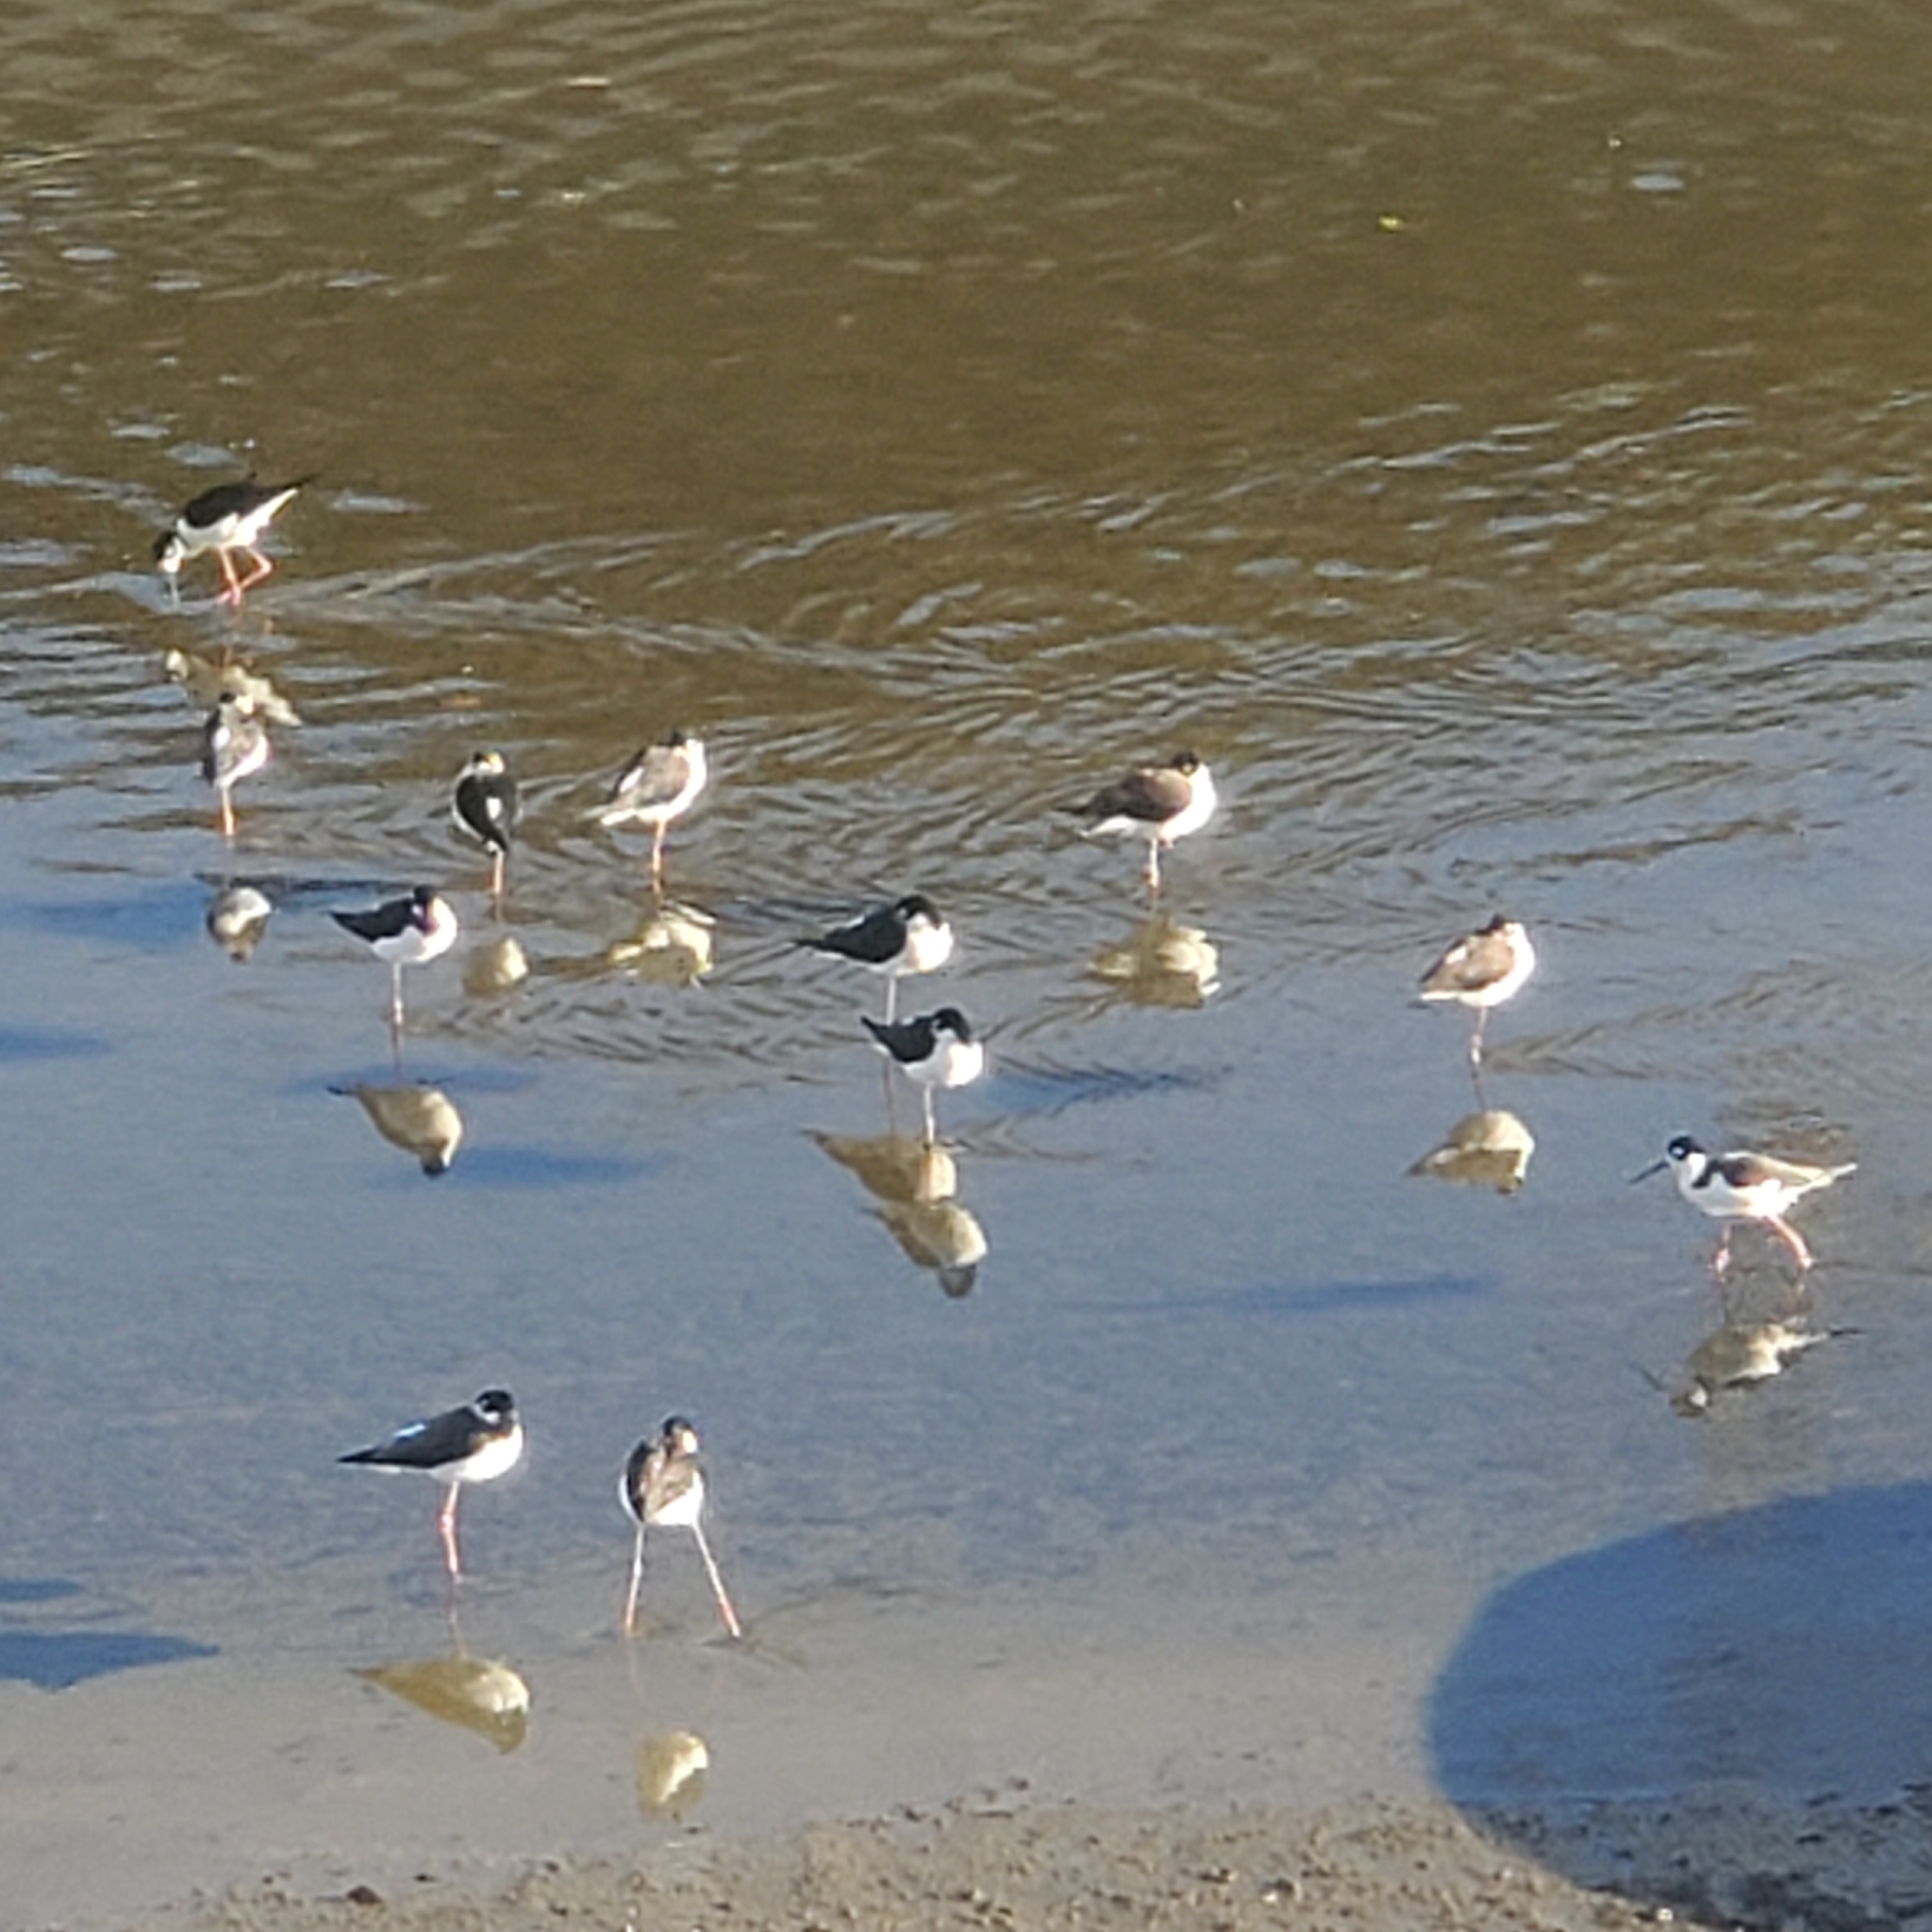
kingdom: Animalia
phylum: Chordata
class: Aves
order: Charadriiformes
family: Recurvirostridae
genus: Himantopus
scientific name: Himantopus mexicanus
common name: Black-necked stilt
